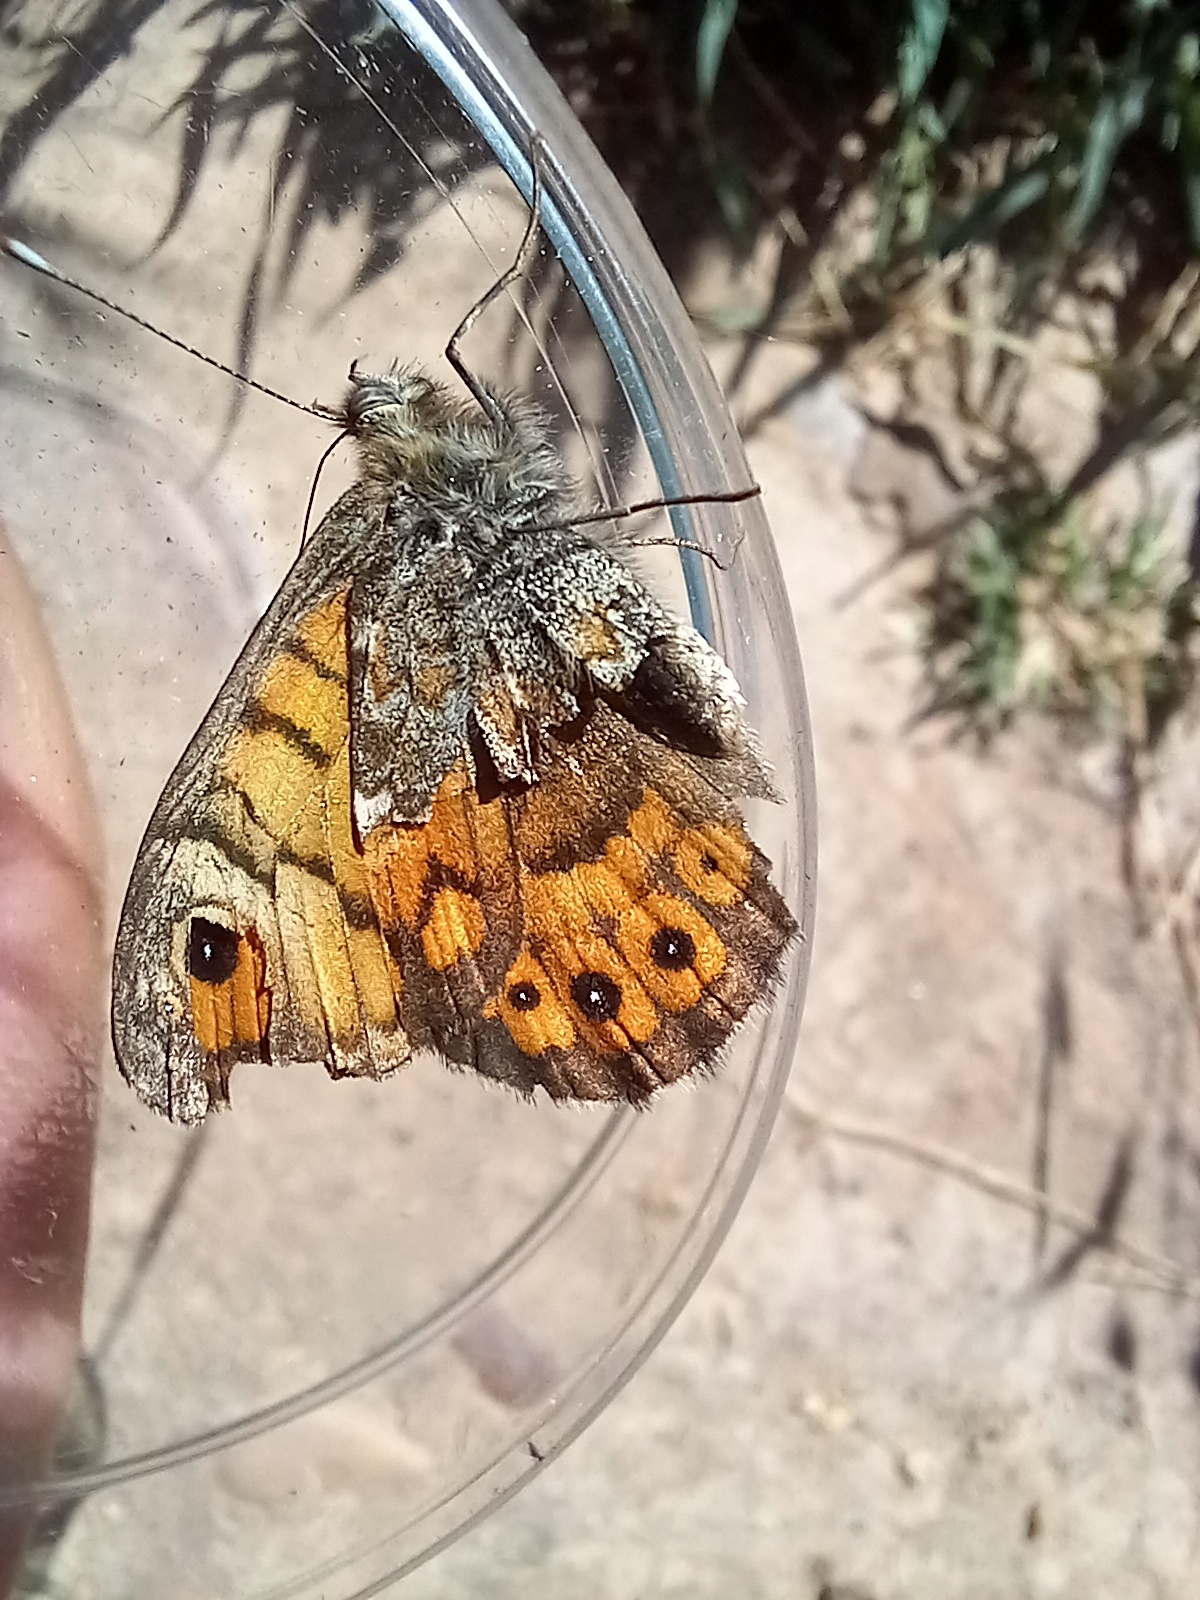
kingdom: Animalia
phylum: Arthropoda
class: Insecta
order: Lepidoptera
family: Nymphalidae
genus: Pararge
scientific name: Pararge Lasiommata megera
